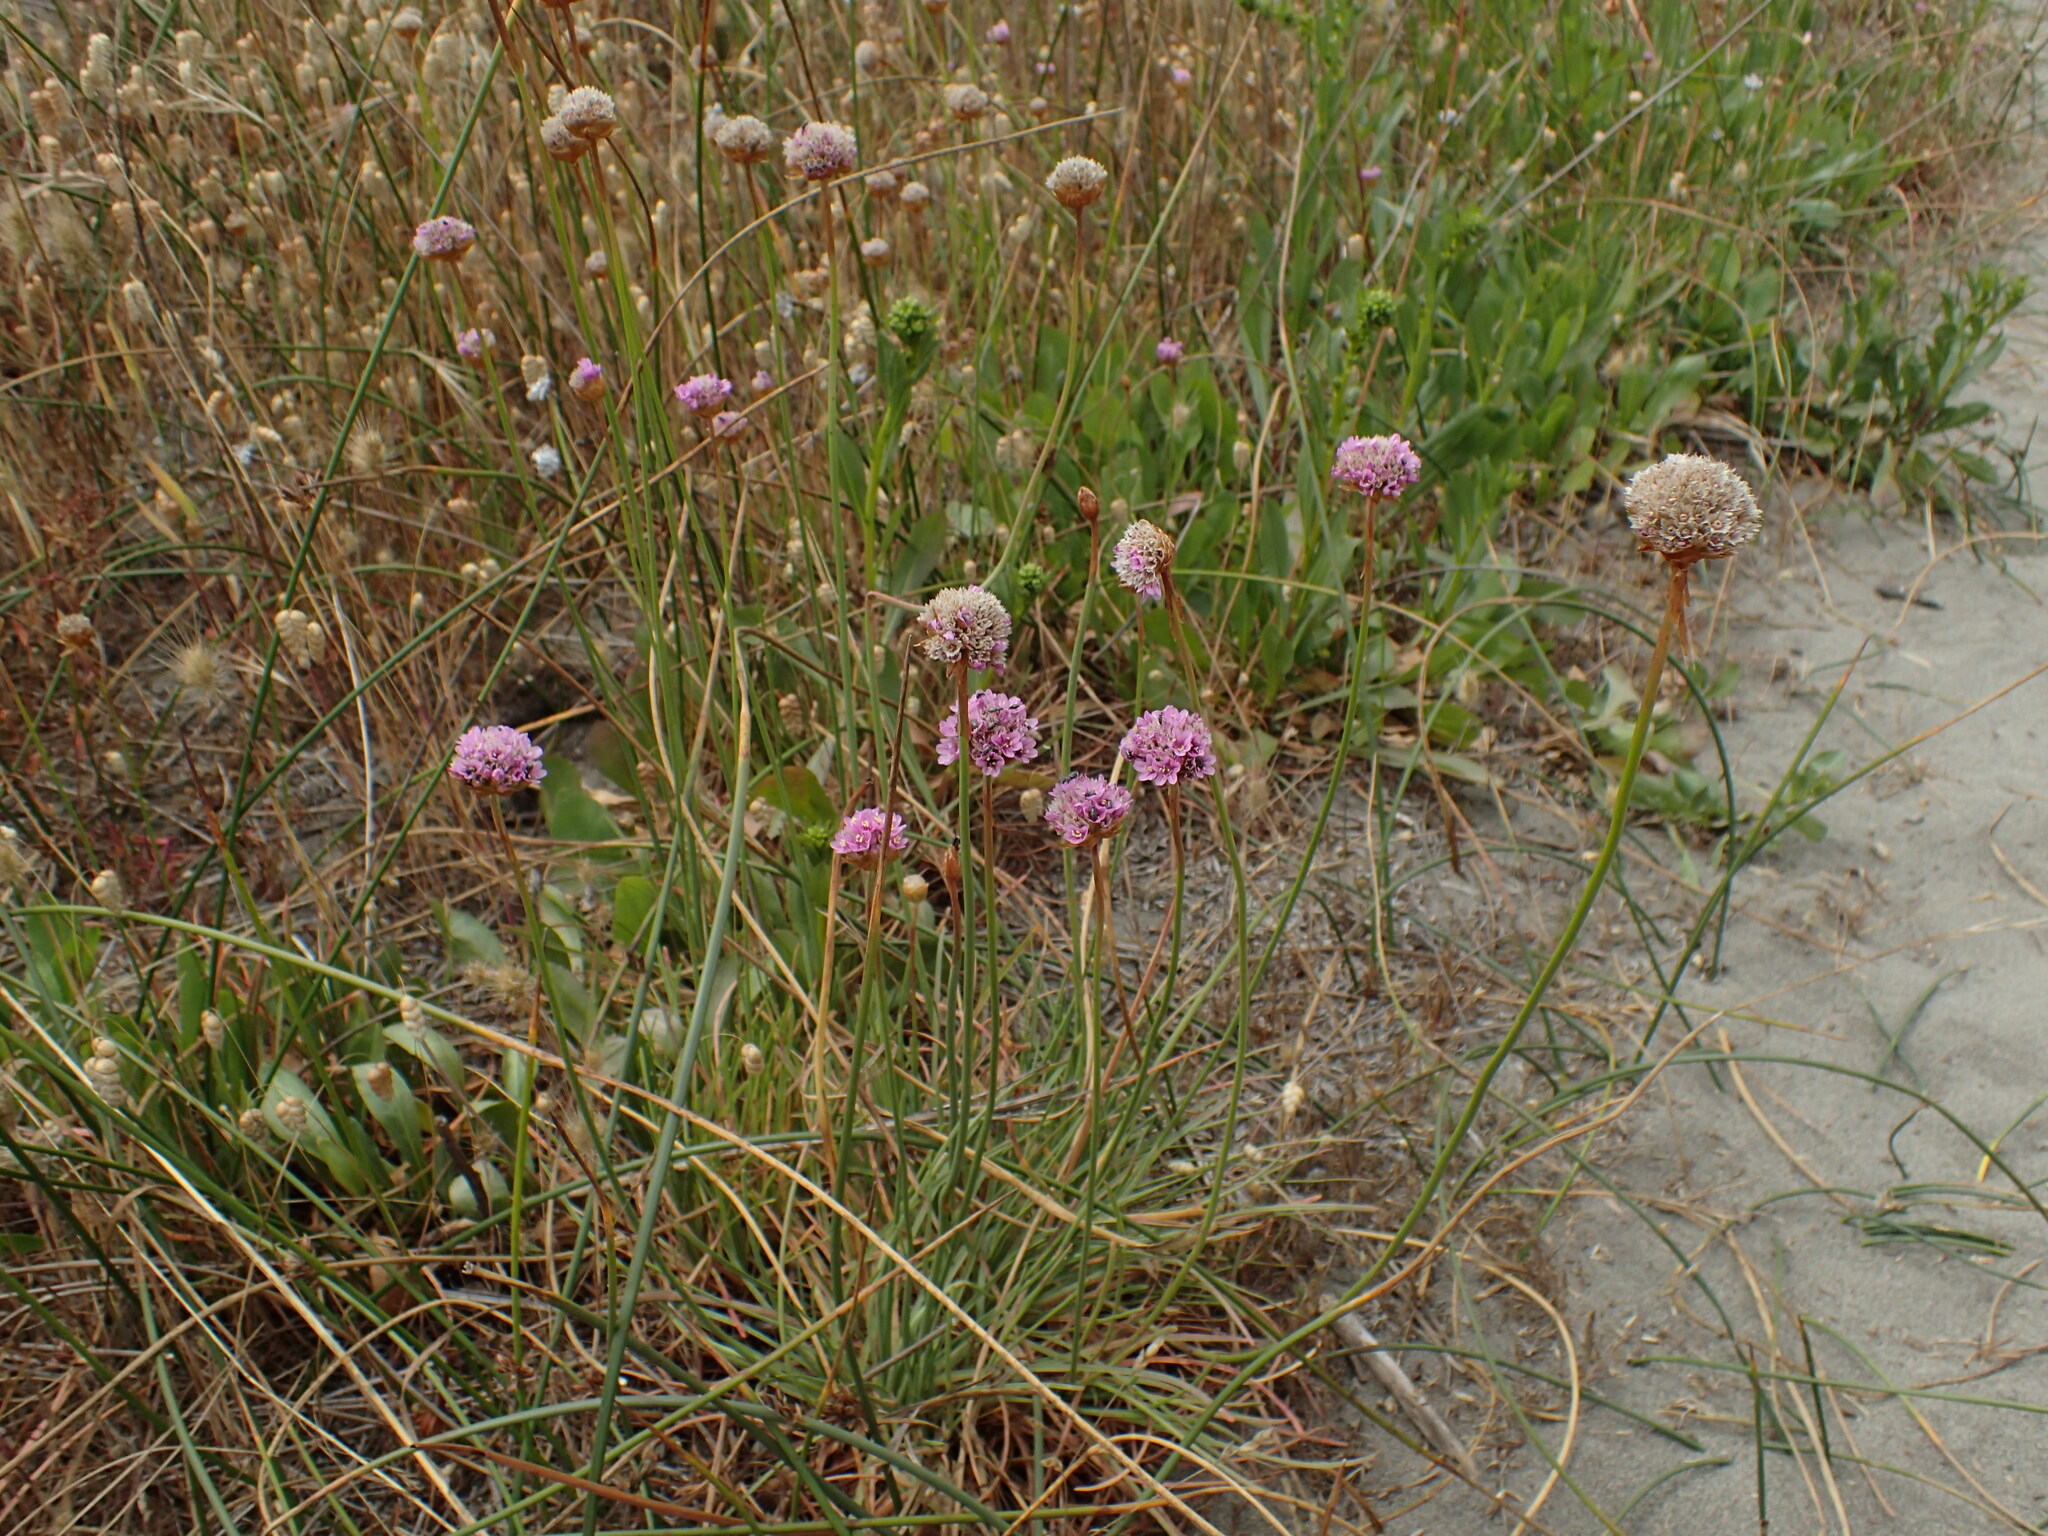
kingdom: Plantae
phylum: Tracheophyta
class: Magnoliopsida
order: Caryophyllales
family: Plumbaginaceae
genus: Armeria
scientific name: Armeria maritima
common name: Thrift
